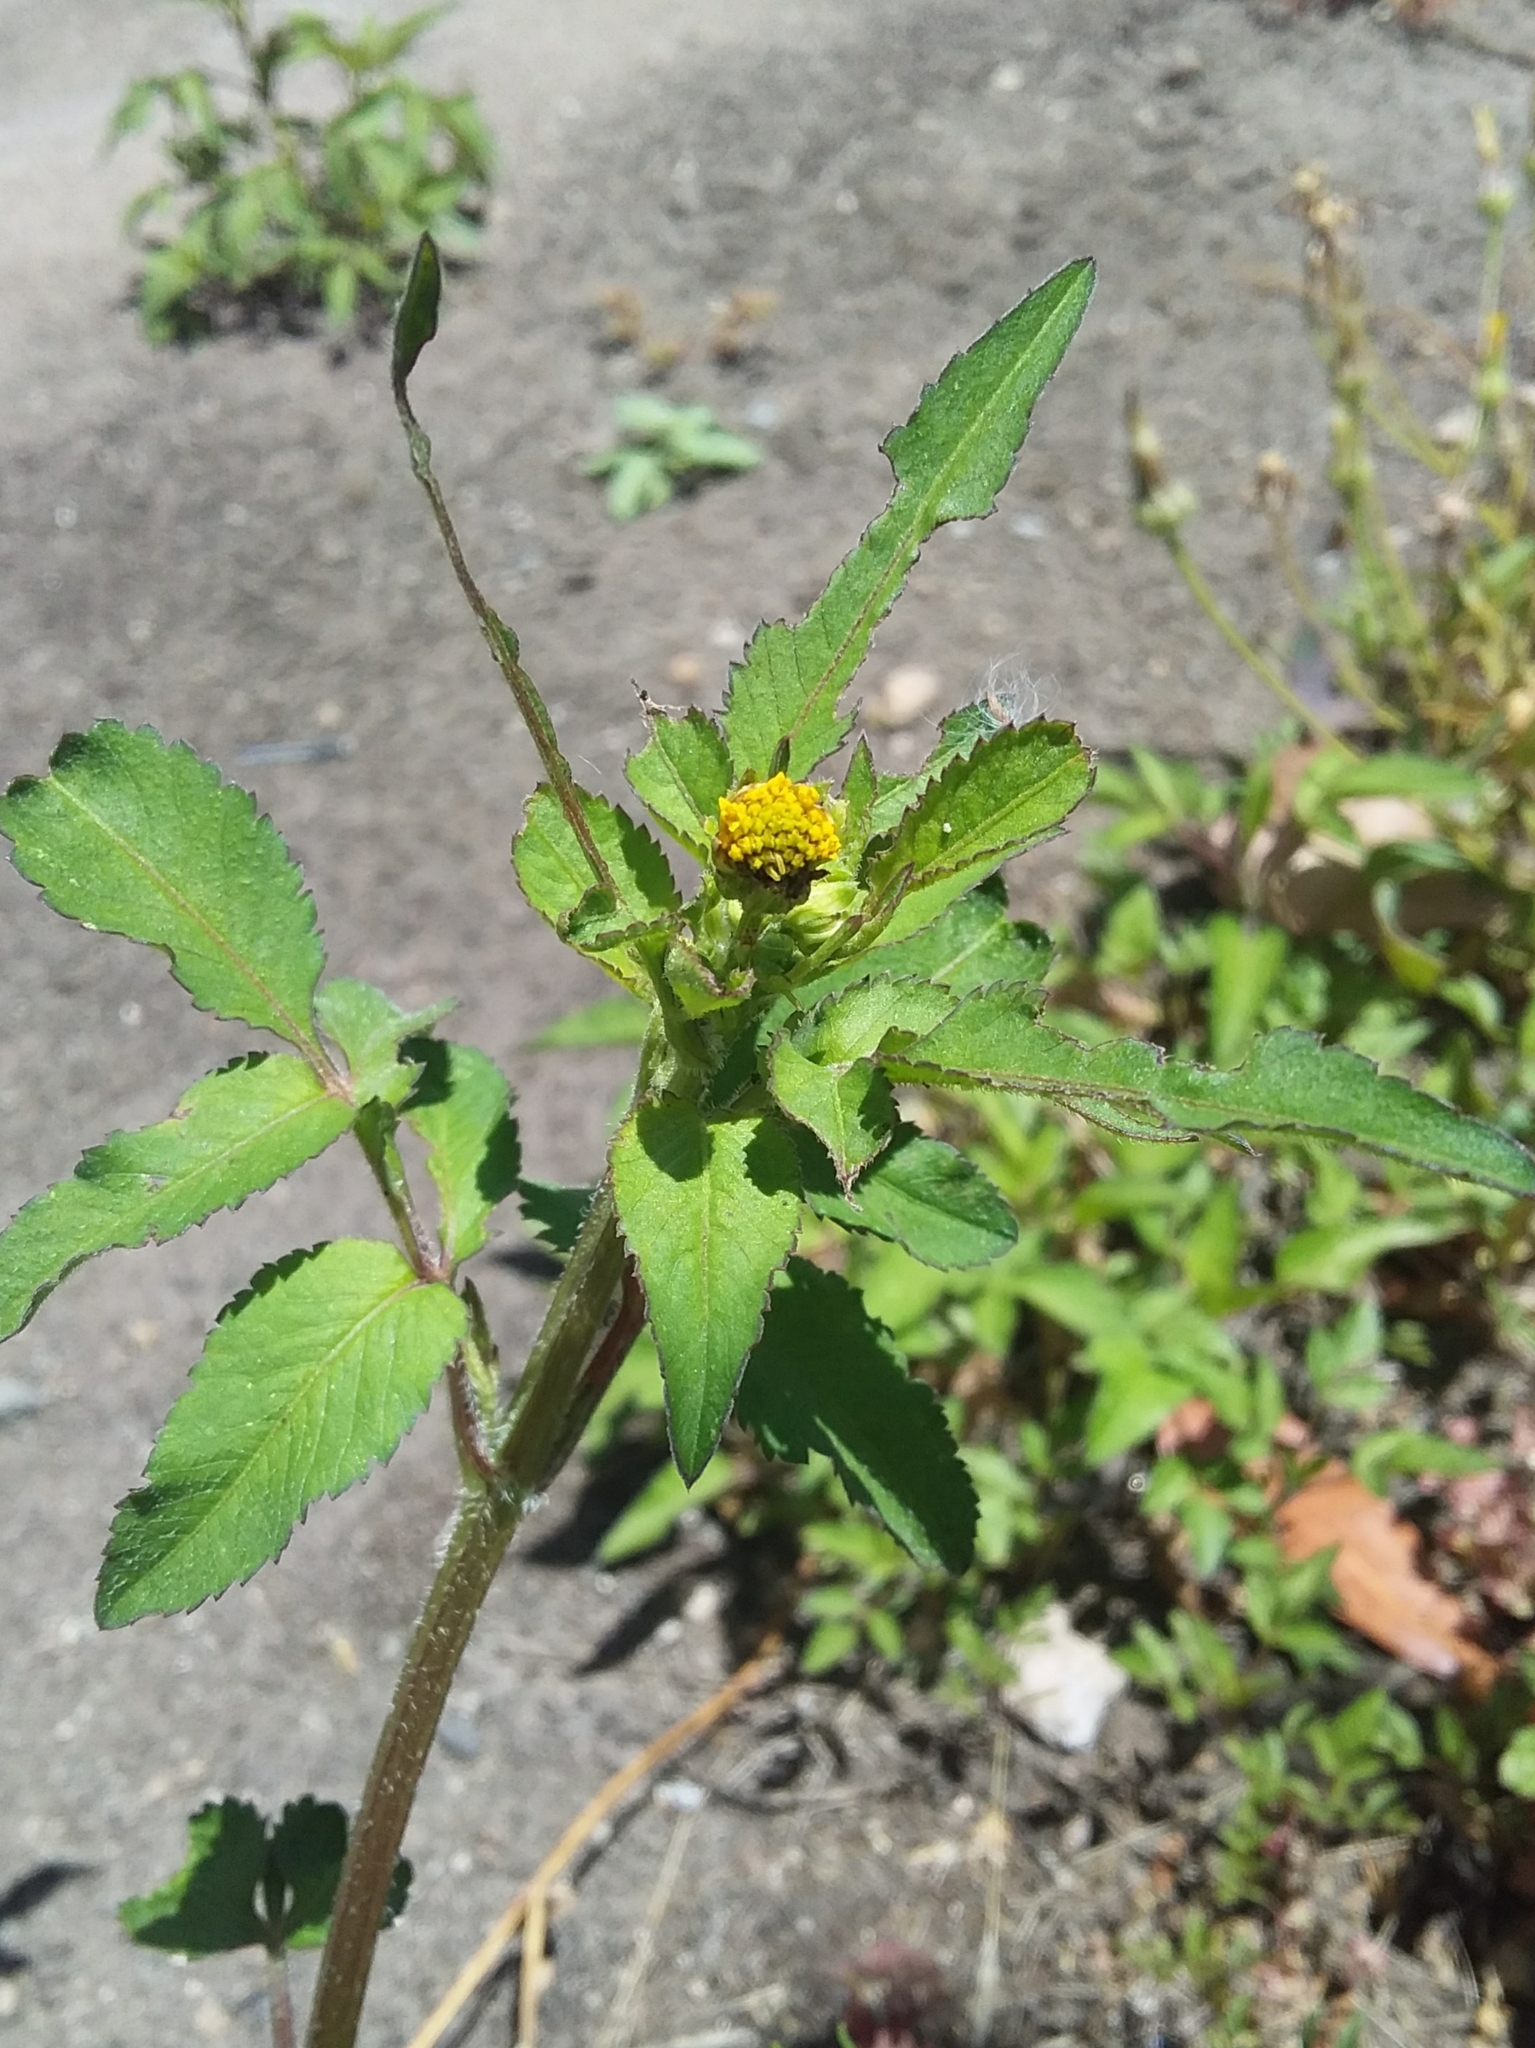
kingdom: Plantae
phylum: Tracheophyta
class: Magnoliopsida
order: Asterales
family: Asteraceae
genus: Bidens
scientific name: Bidens pilosa
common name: Black-jack
